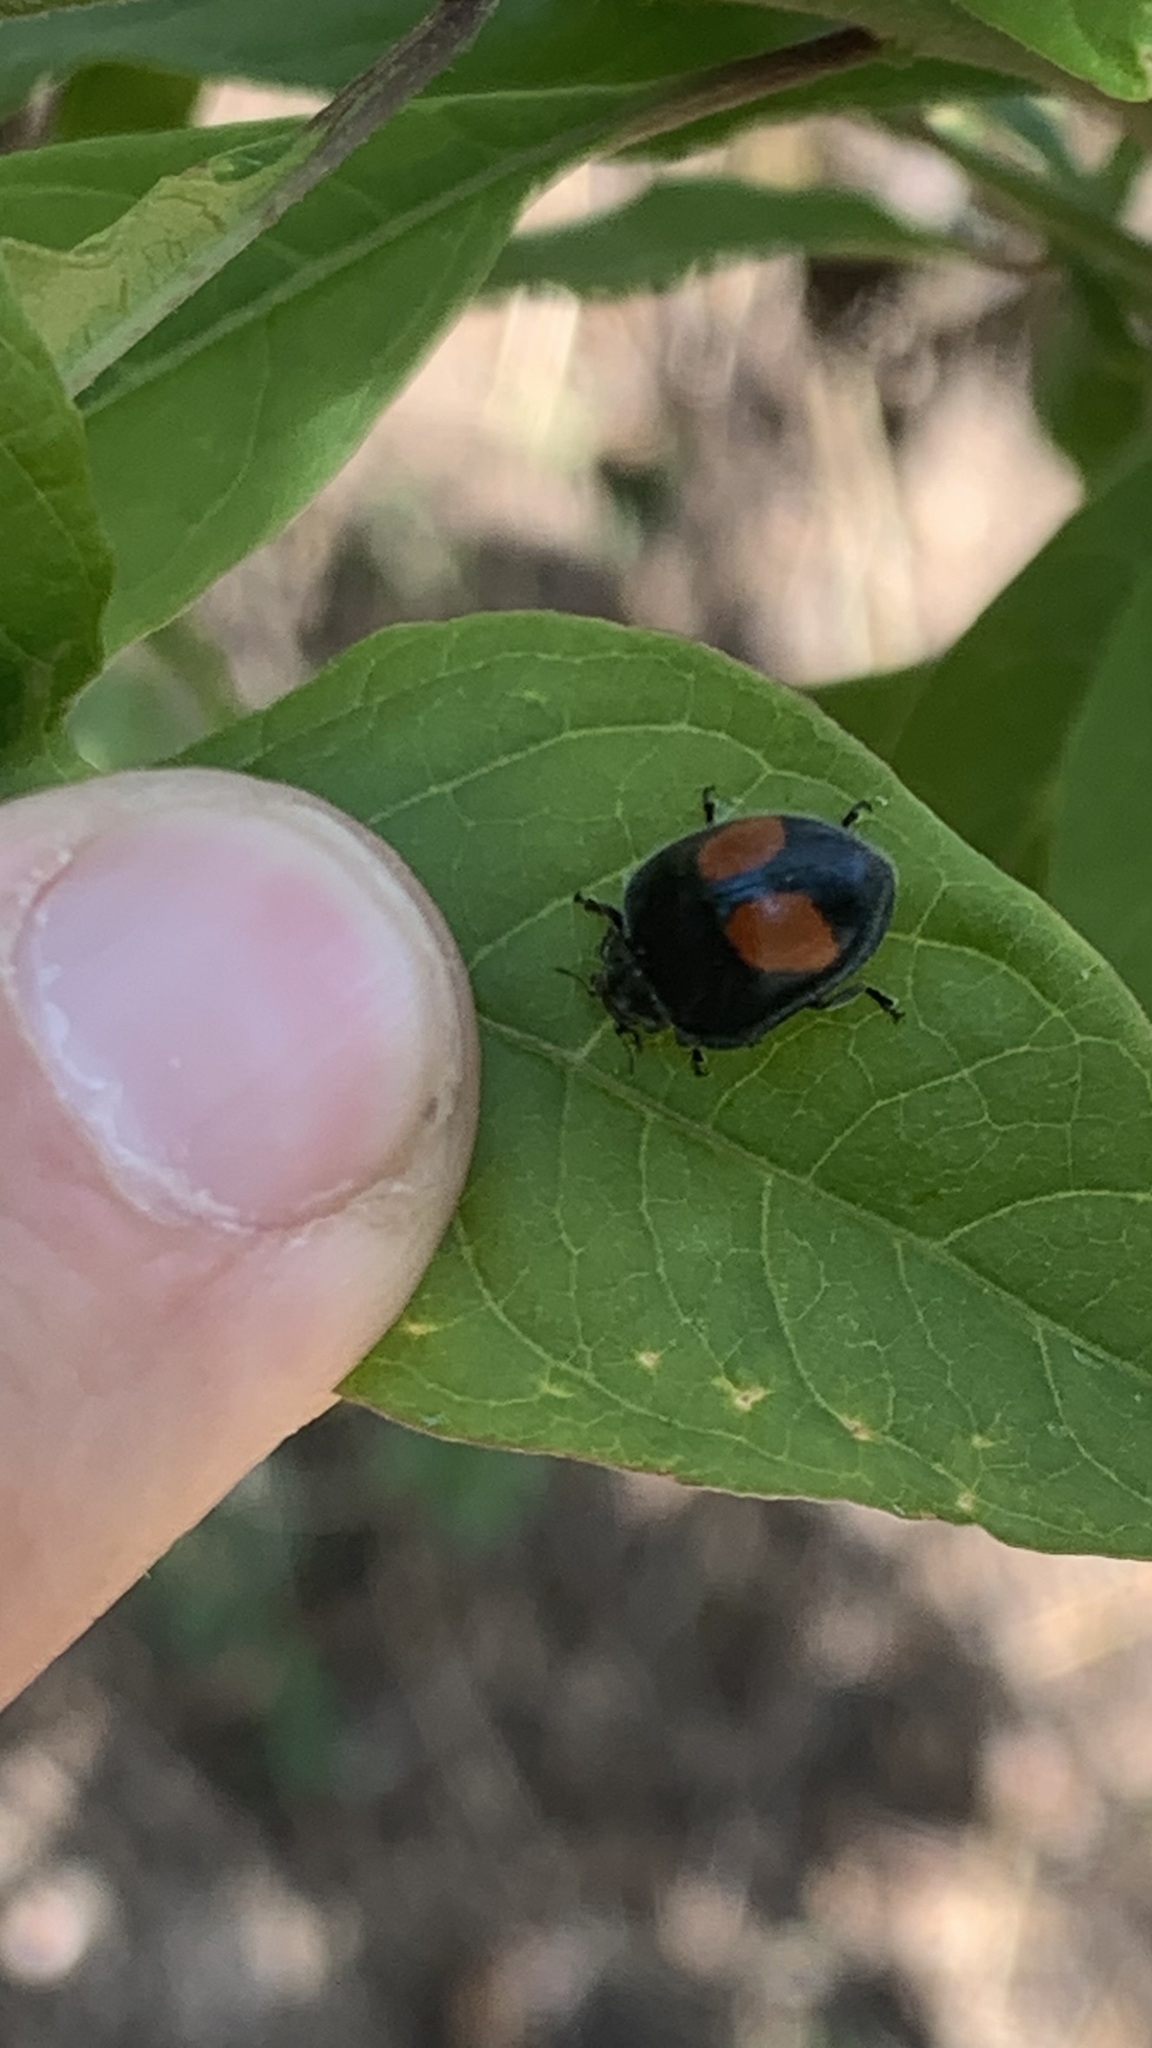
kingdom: Animalia
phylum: Arthropoda
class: Insecta
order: Coleoptera
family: Coccinellidae
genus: Epilachna
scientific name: Epilachna sellata
